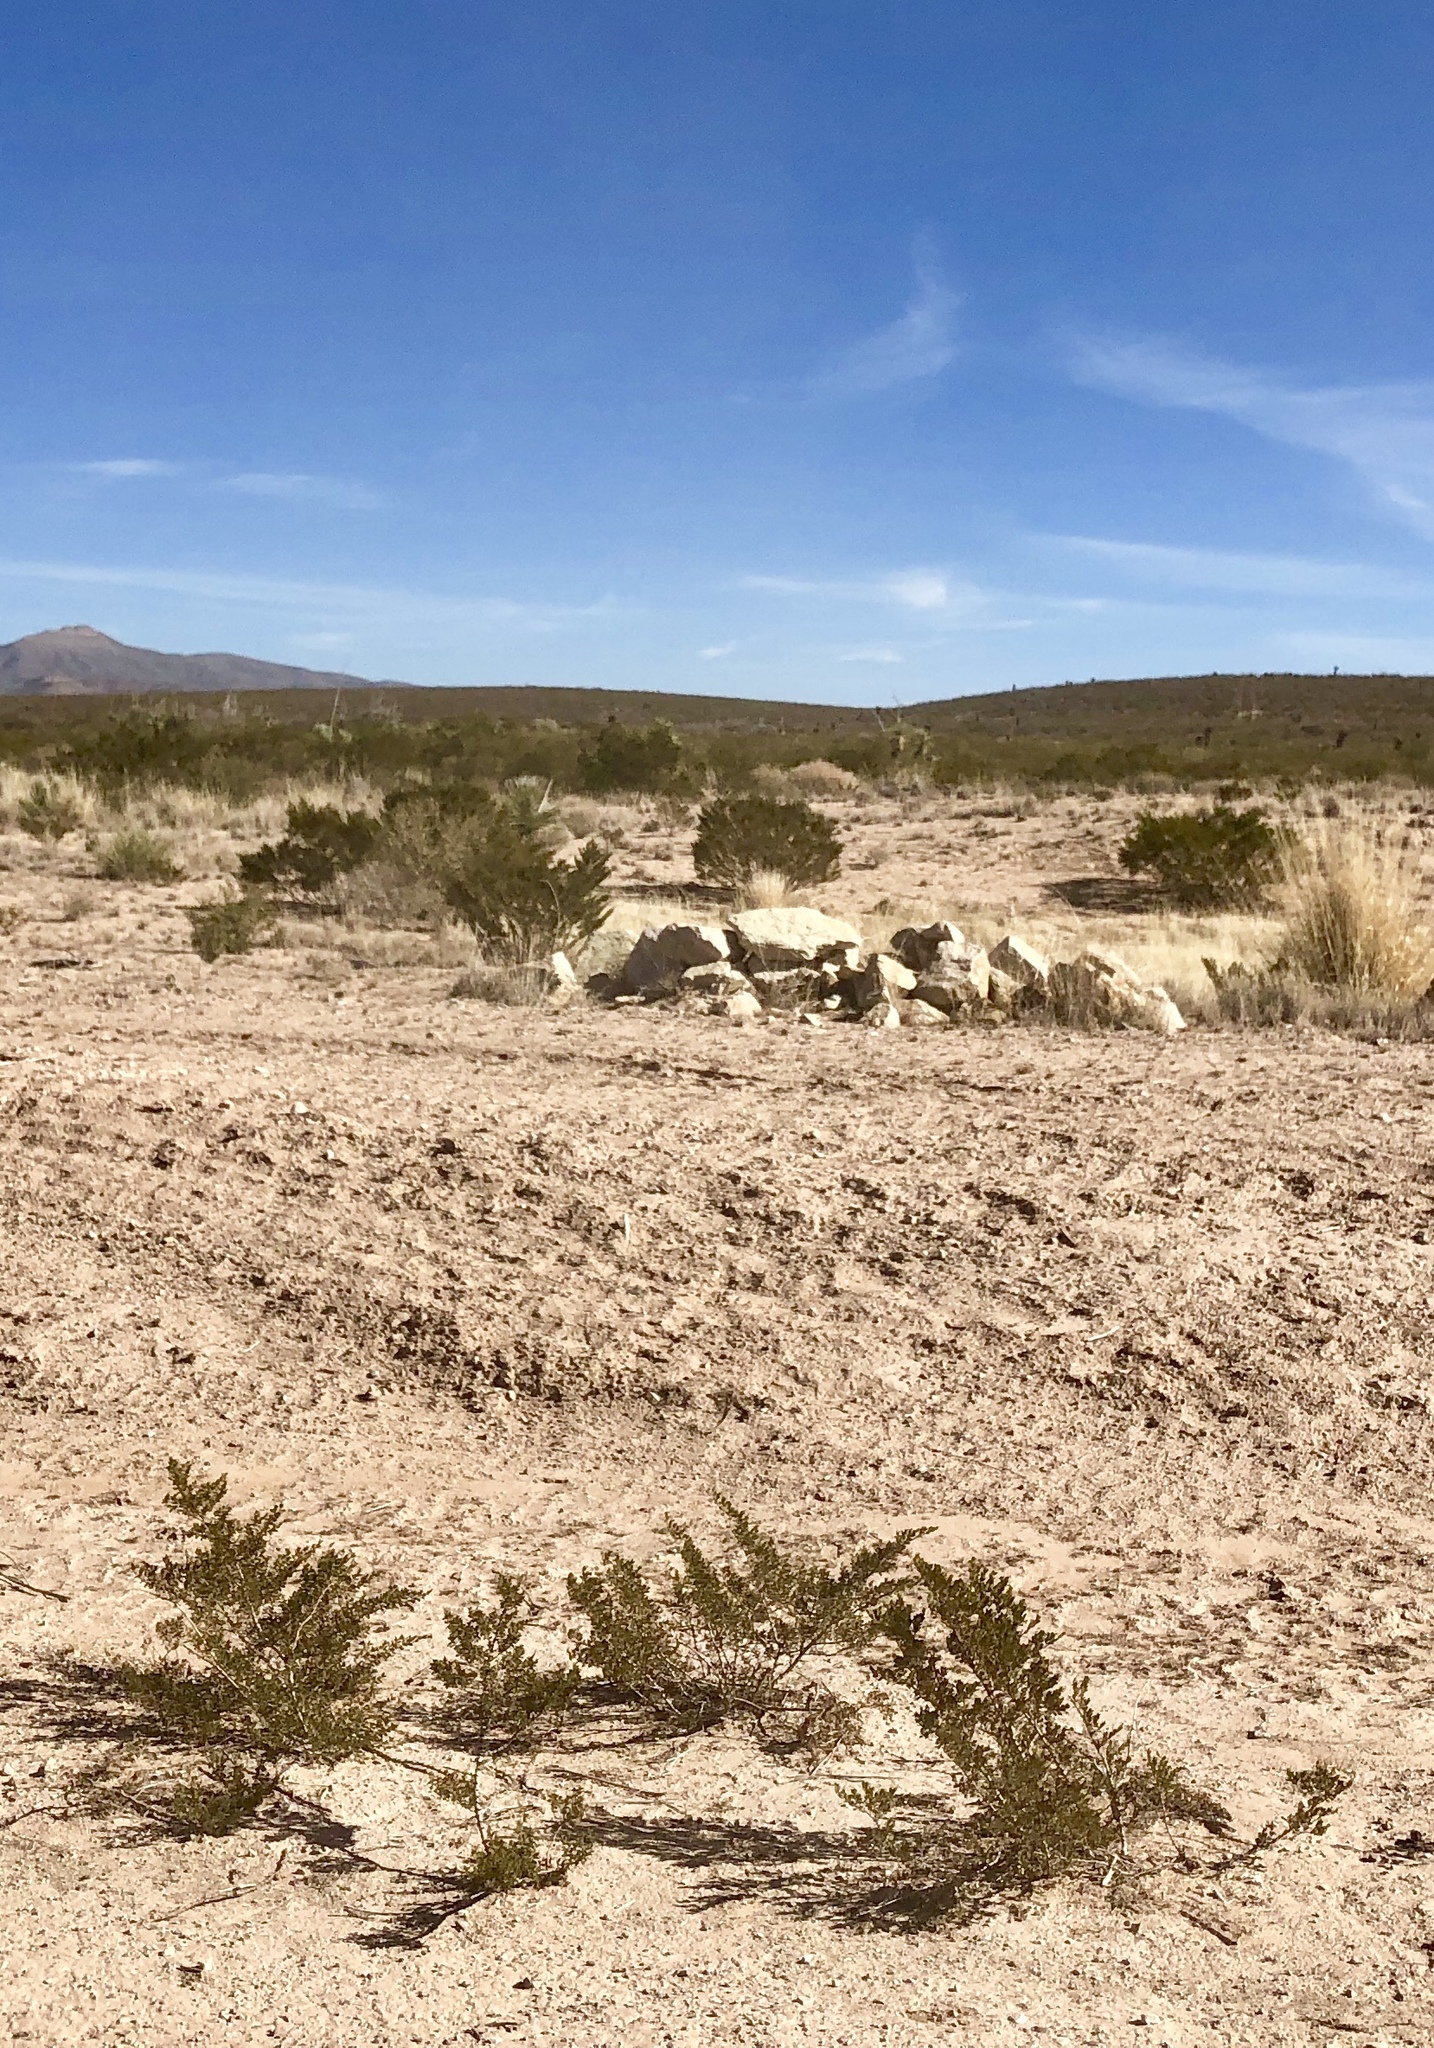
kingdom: Plantae
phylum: Tracheophyta
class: Magnoliopsida
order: Zygophyllales
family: Zygophyllaceae
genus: Larrea
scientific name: Larrea tridentata
